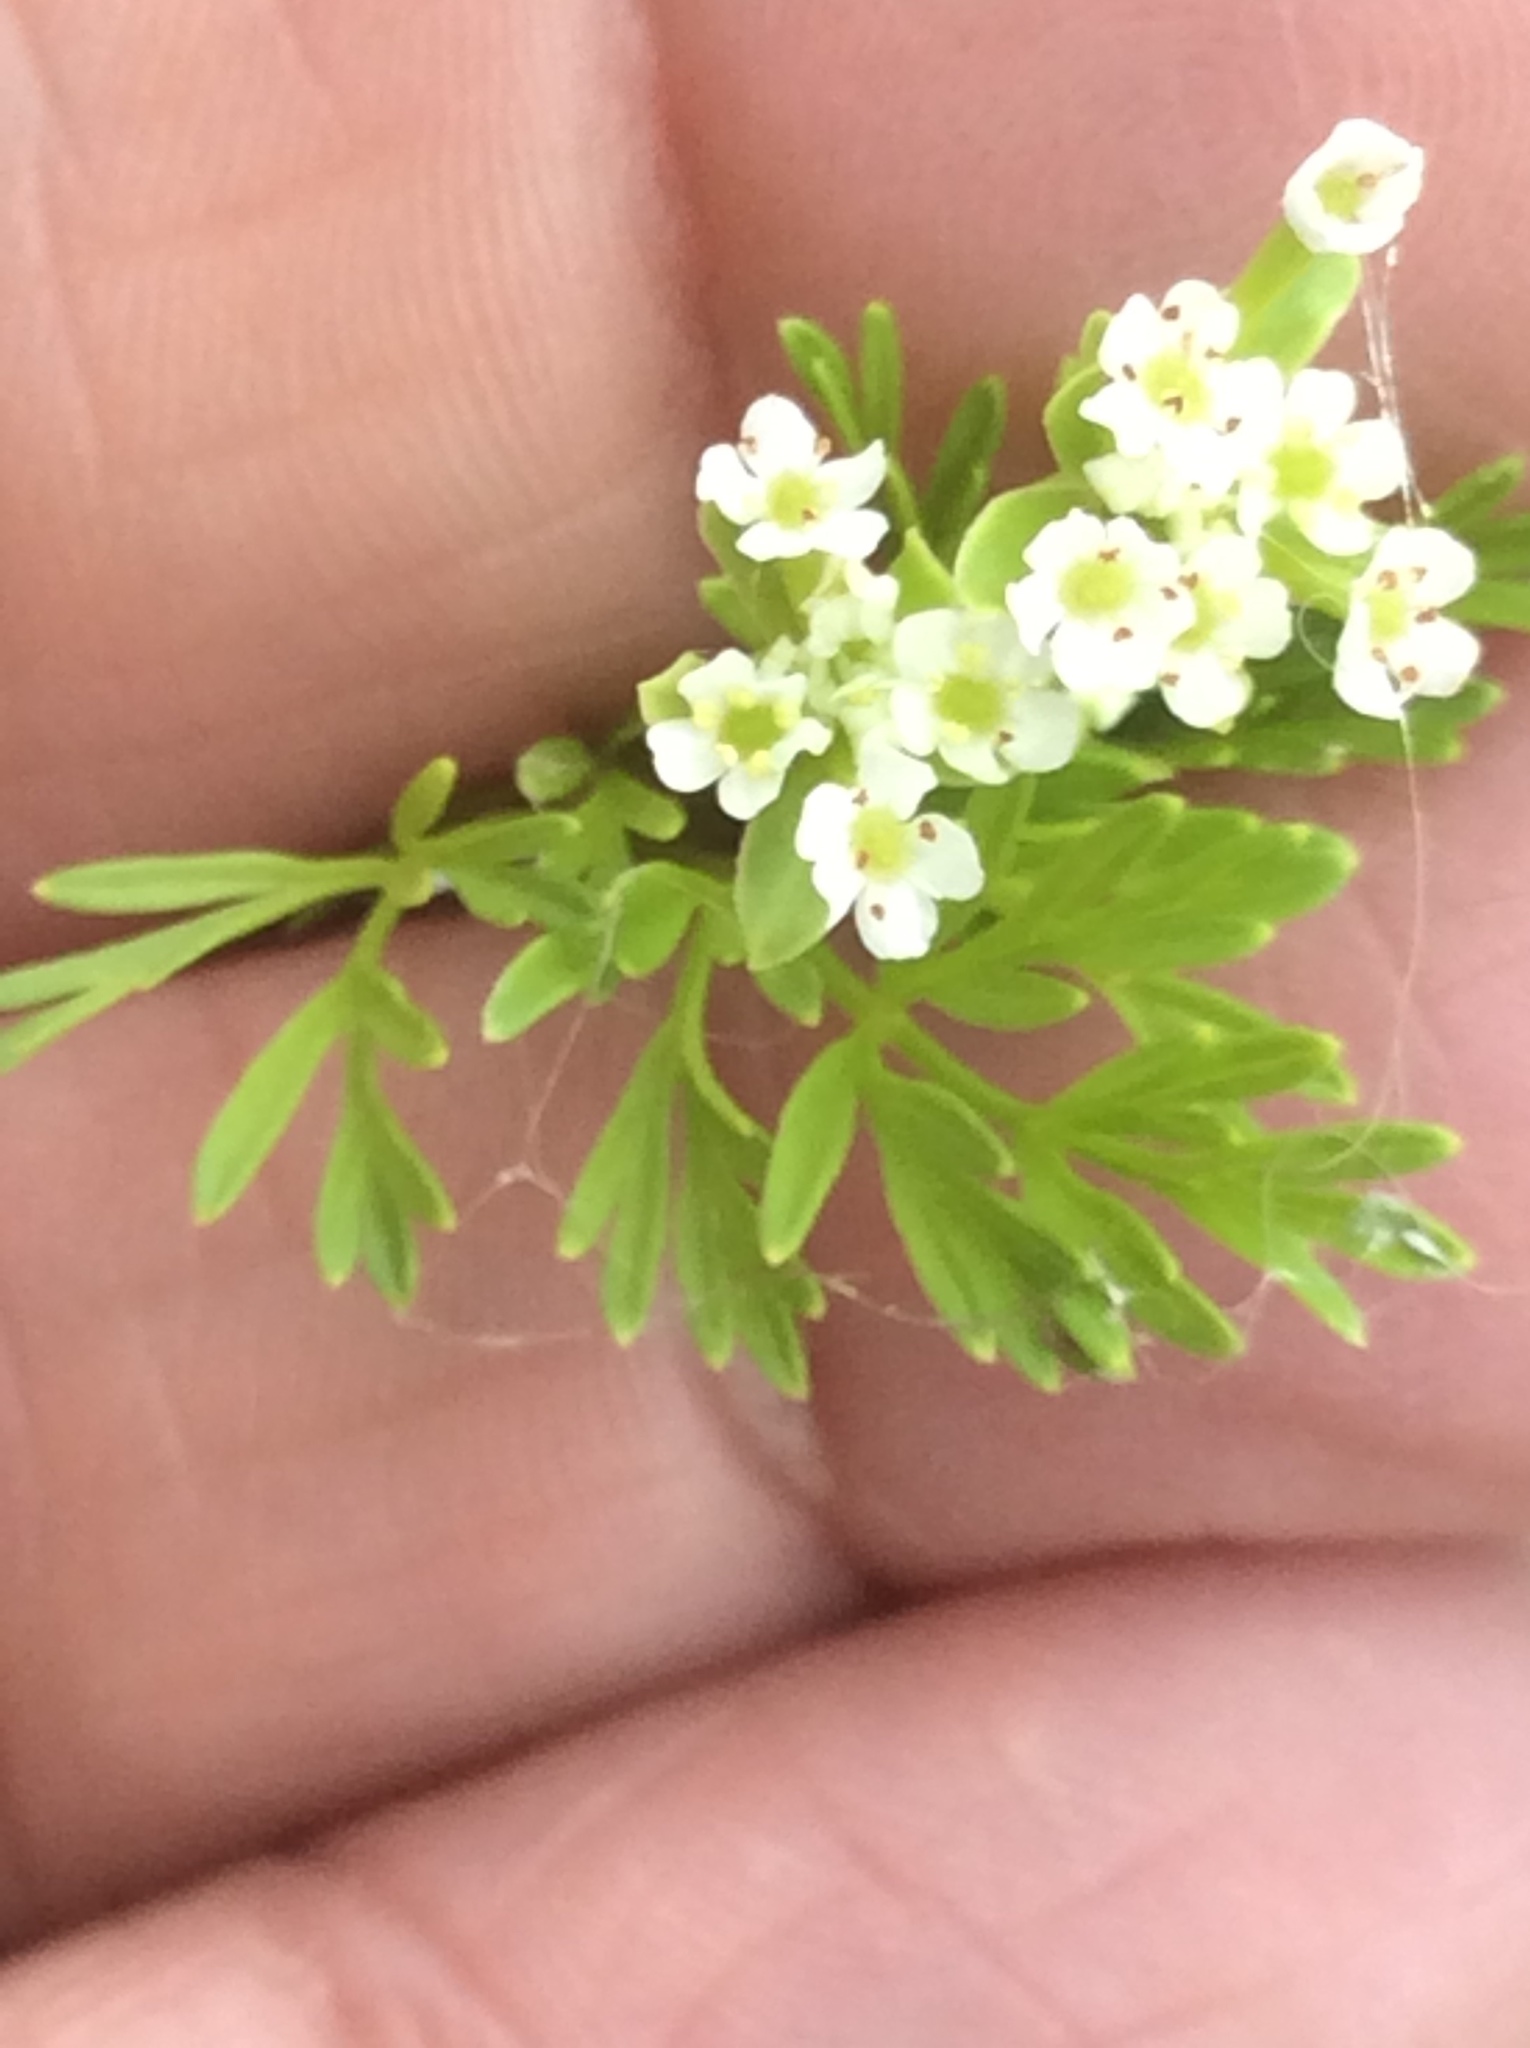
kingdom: Plantae
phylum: Tracheophyta
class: Magnoliopsida
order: Apiales
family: Apiaceae
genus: Chaerophyllum
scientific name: Chaerophyllum tainturieri
